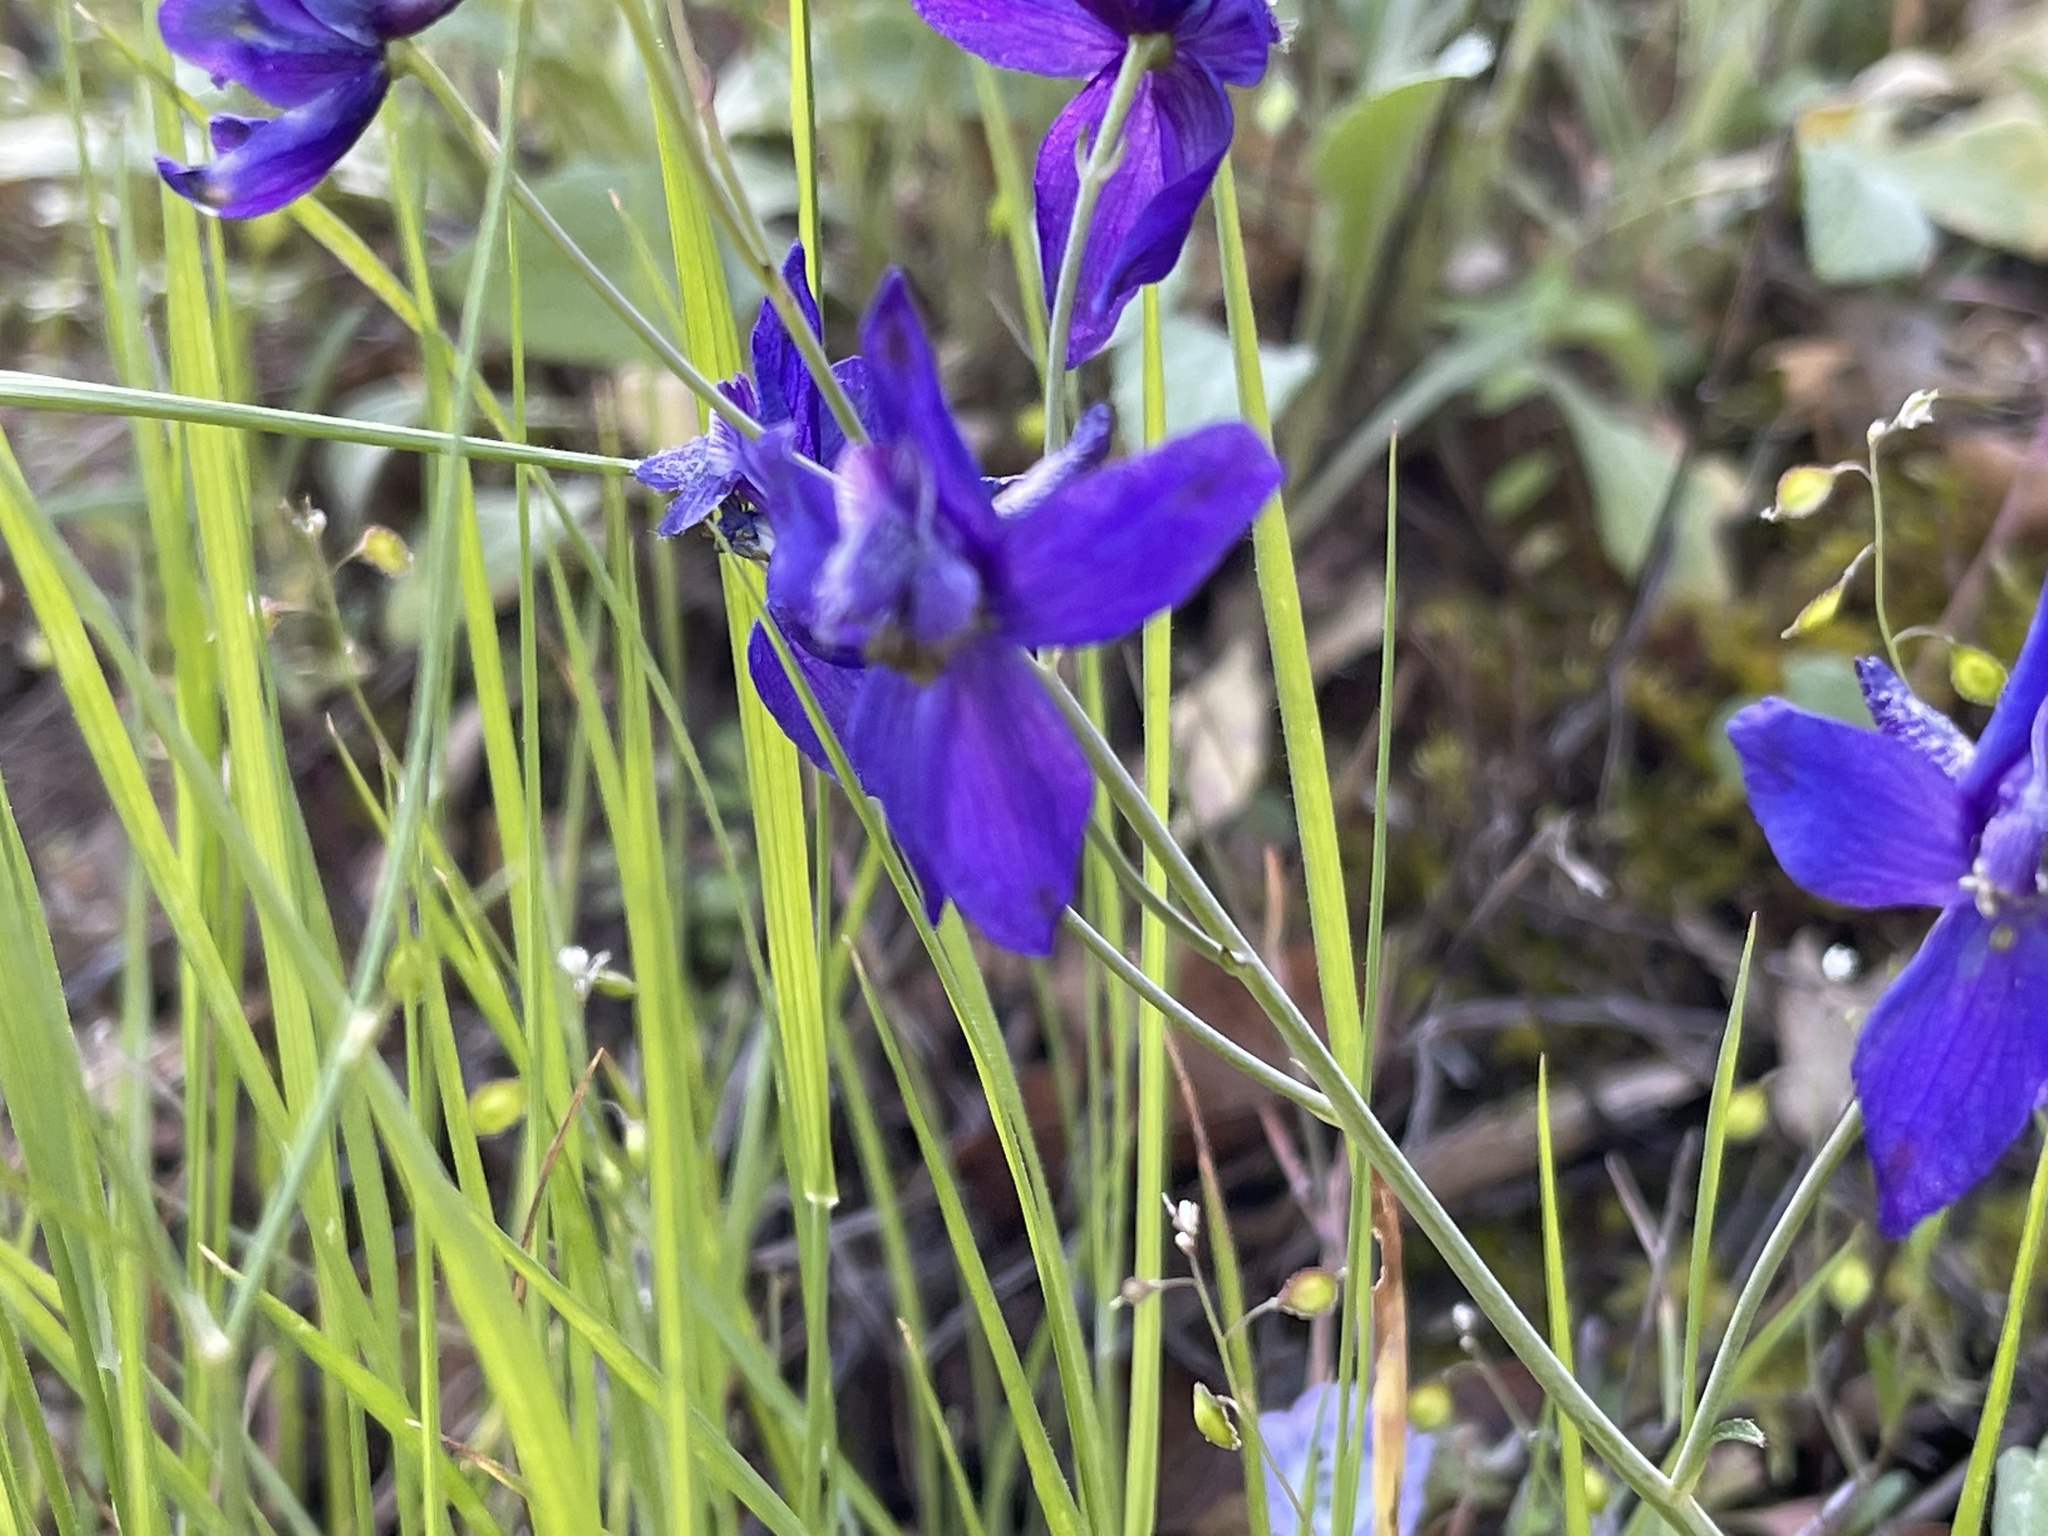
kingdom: Plantae
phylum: Tracheophyta
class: Magnoliopsida
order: Ranunculales
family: Ranunculaceae
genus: Delphinium
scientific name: Delphinium patens
